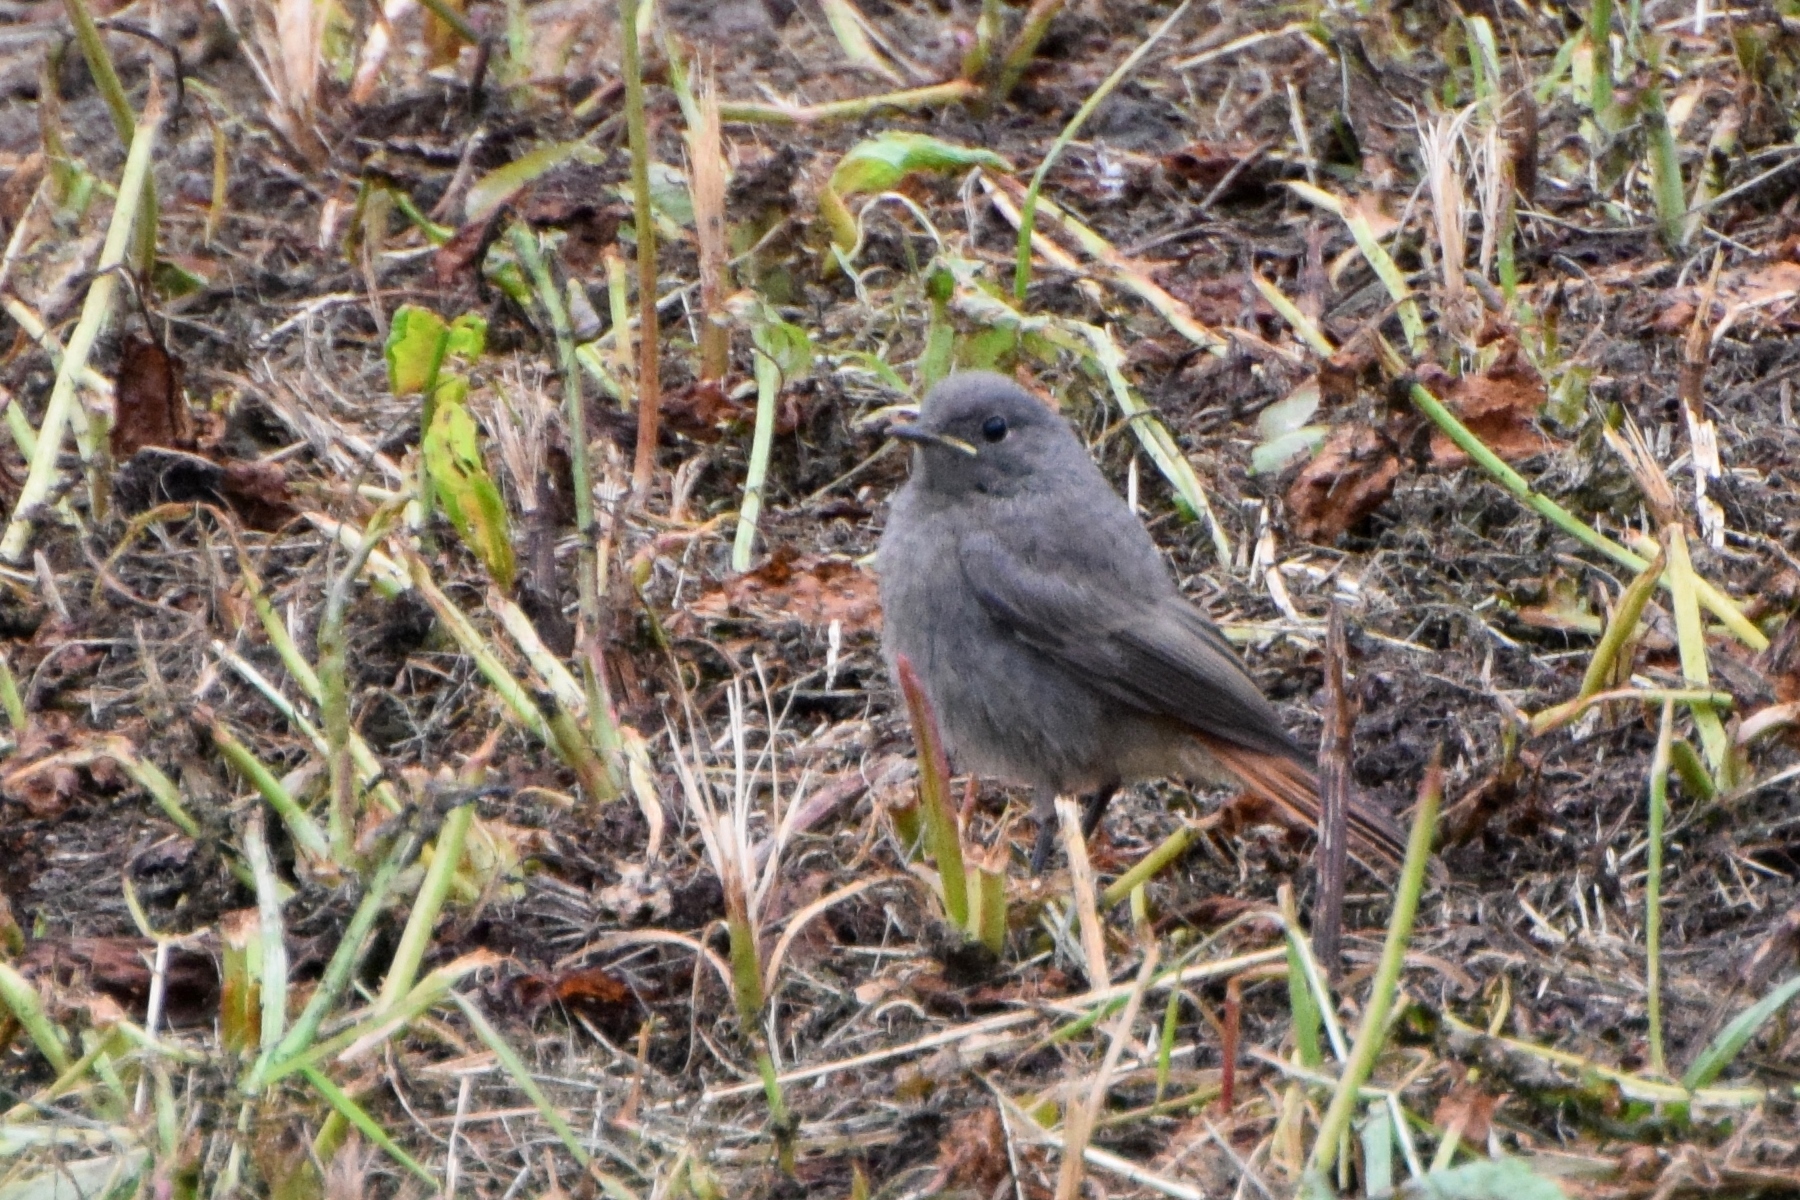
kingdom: Animalia
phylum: Chordata
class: Aves
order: Passeriformes
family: Muscicapidae
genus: Phoenicurus
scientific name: Phoenicurus ochruros
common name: Black redstart
